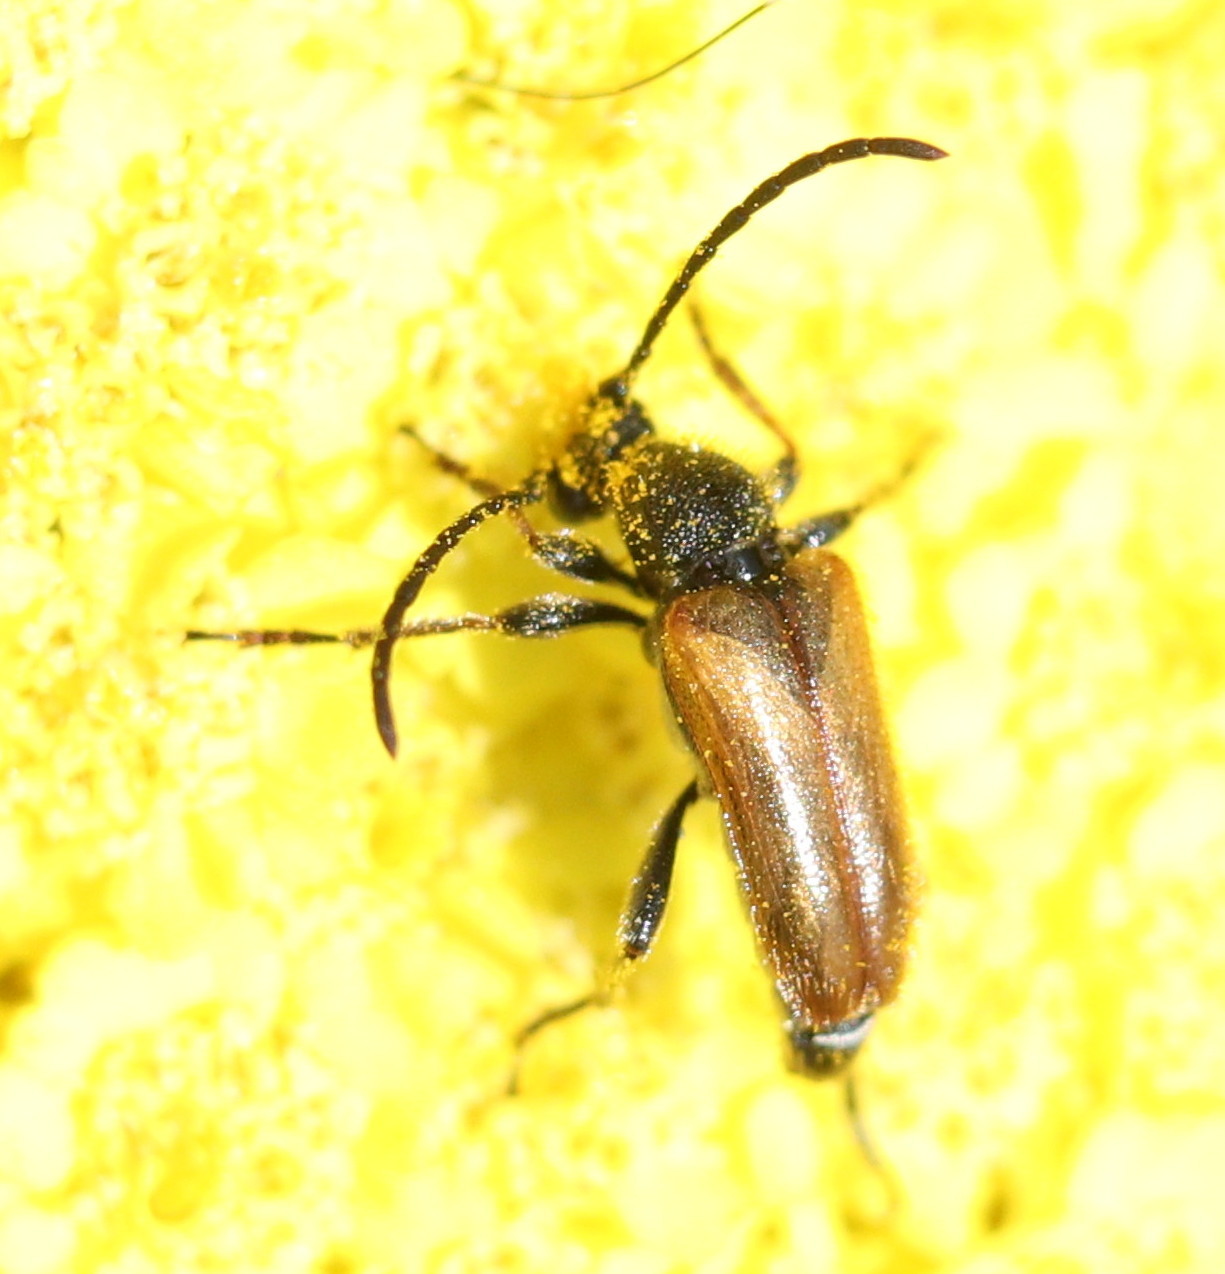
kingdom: Animalia
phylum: Arthropoda
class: Insecta
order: Coleoptera
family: Cerambycidae
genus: Pseudovadonia
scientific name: Pseudovadonia livida
